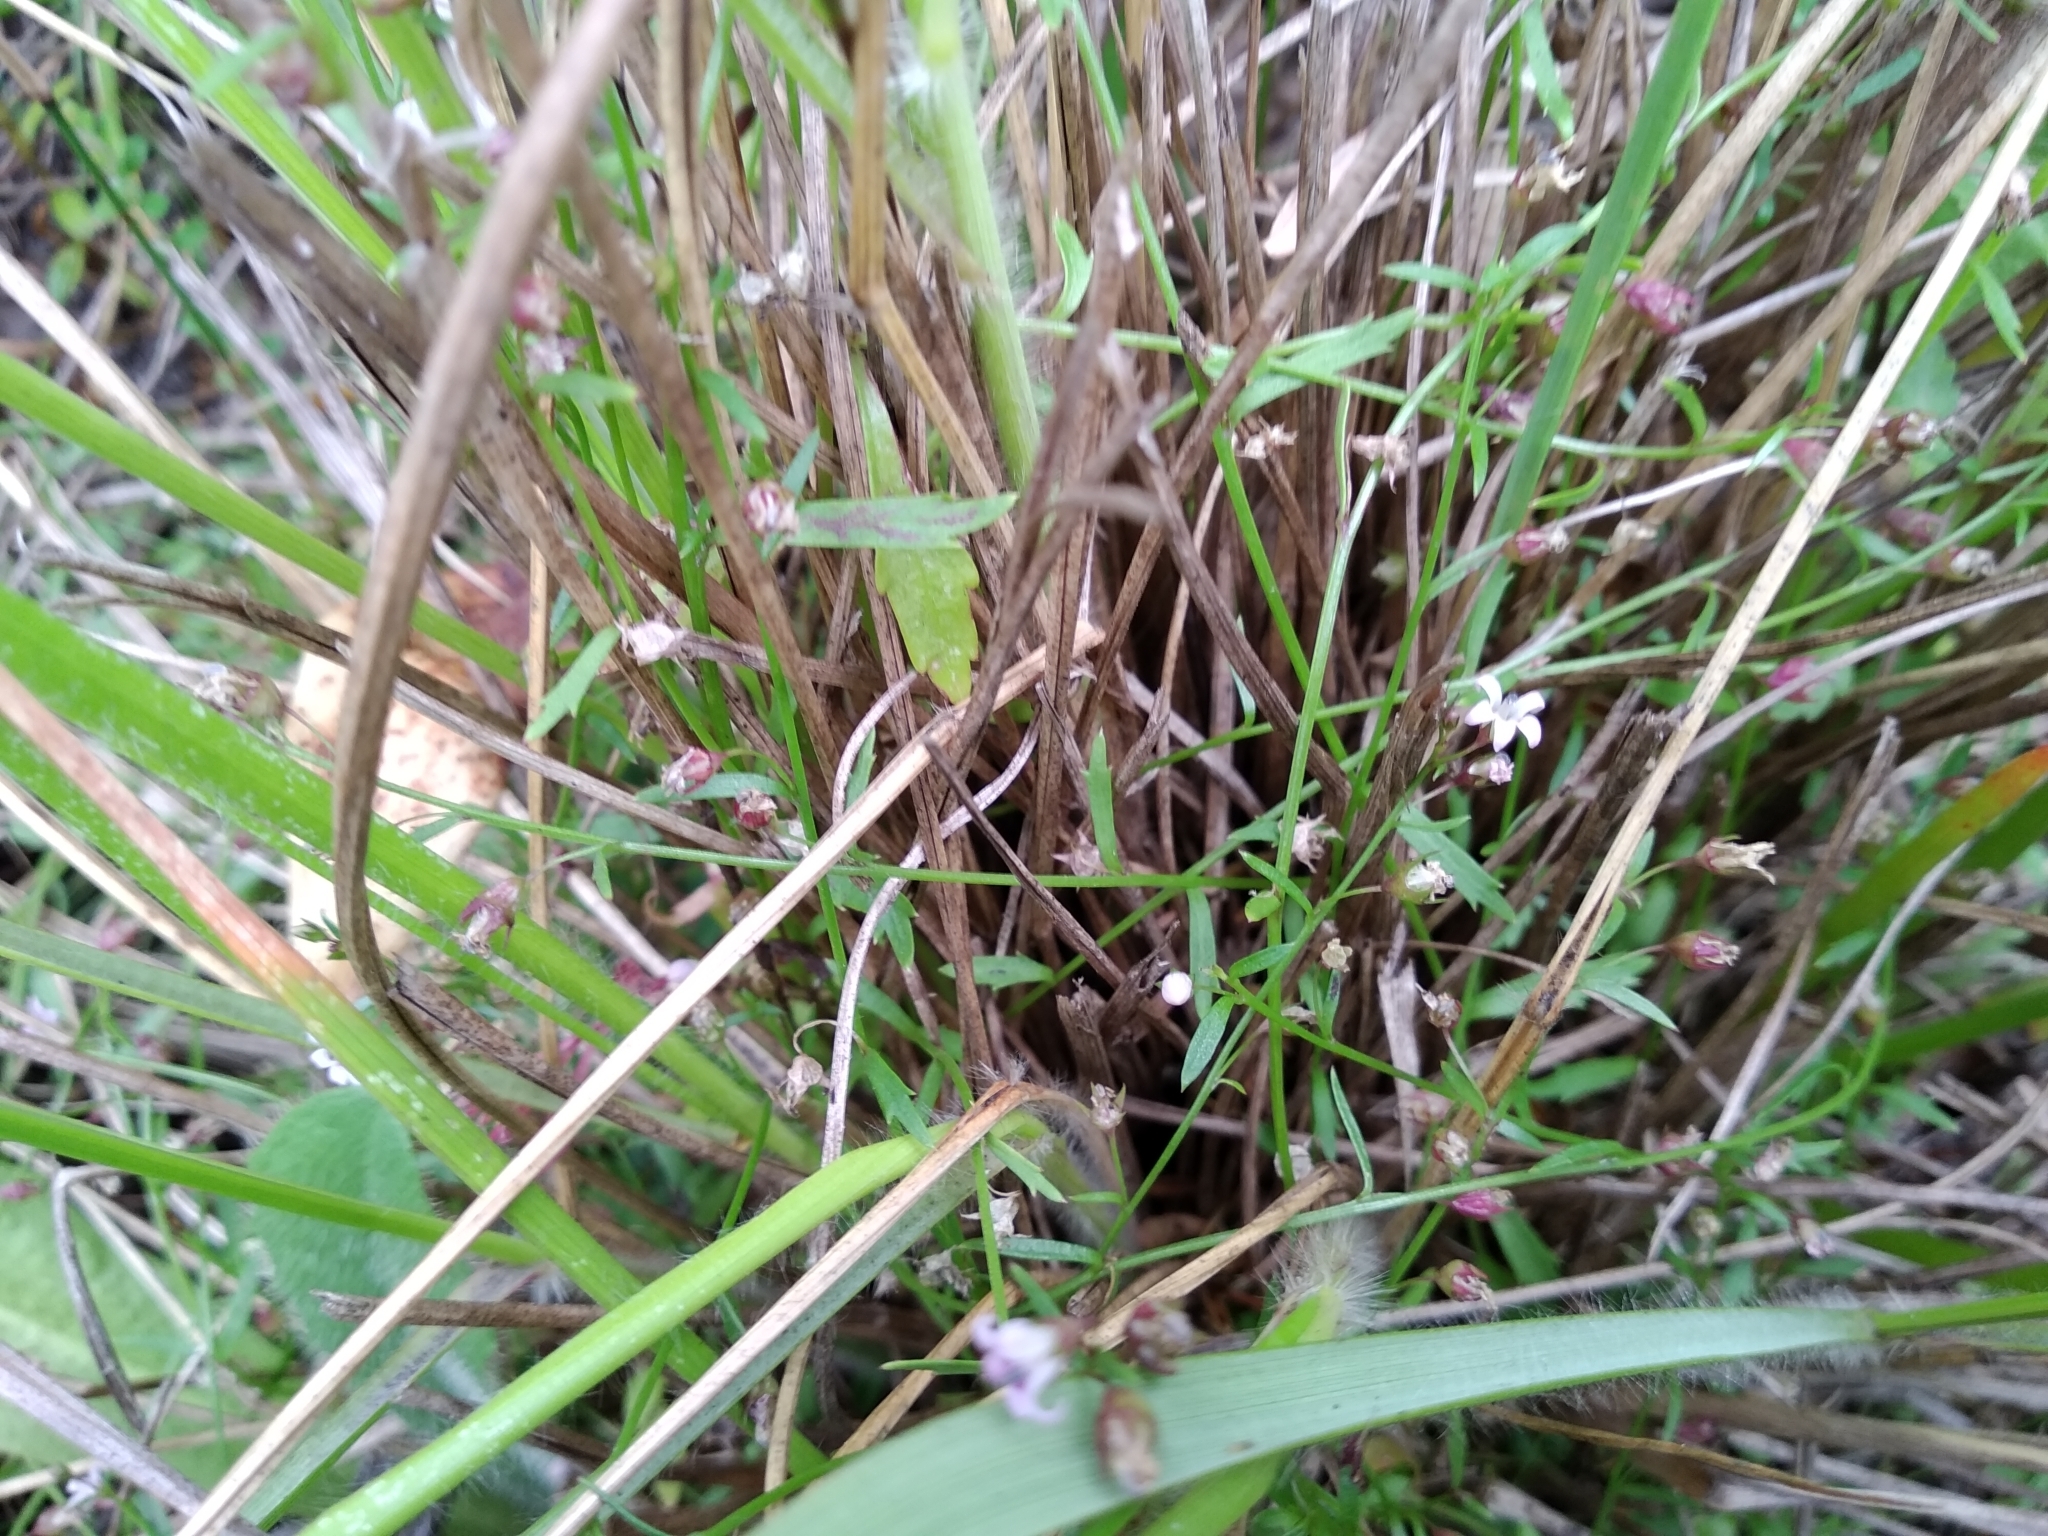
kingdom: Plantae
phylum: Tracheophyta
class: Magnoliopsida
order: Asterales
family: Campanulaceae
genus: Lobelia
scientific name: Lobelia eckloniana
